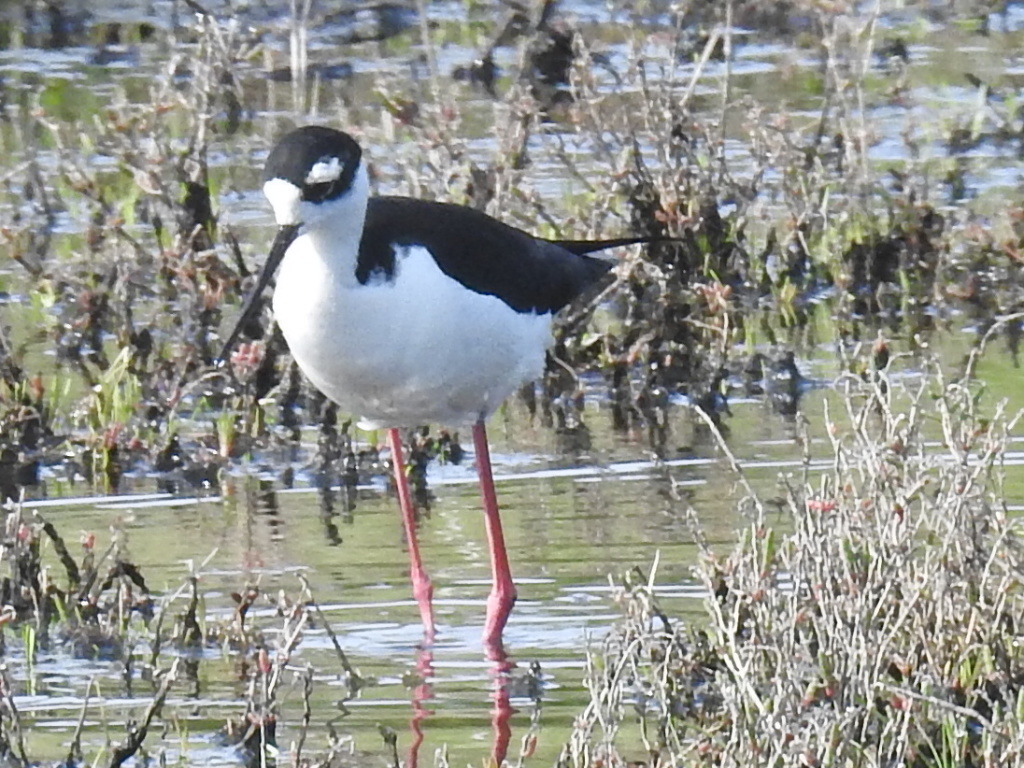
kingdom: Animalia
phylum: Chordata
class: Aves
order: Charadriiformes
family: Recurvirostridae
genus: Himantopus
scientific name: Himantopus mexicanus
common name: Black-necked stilt
